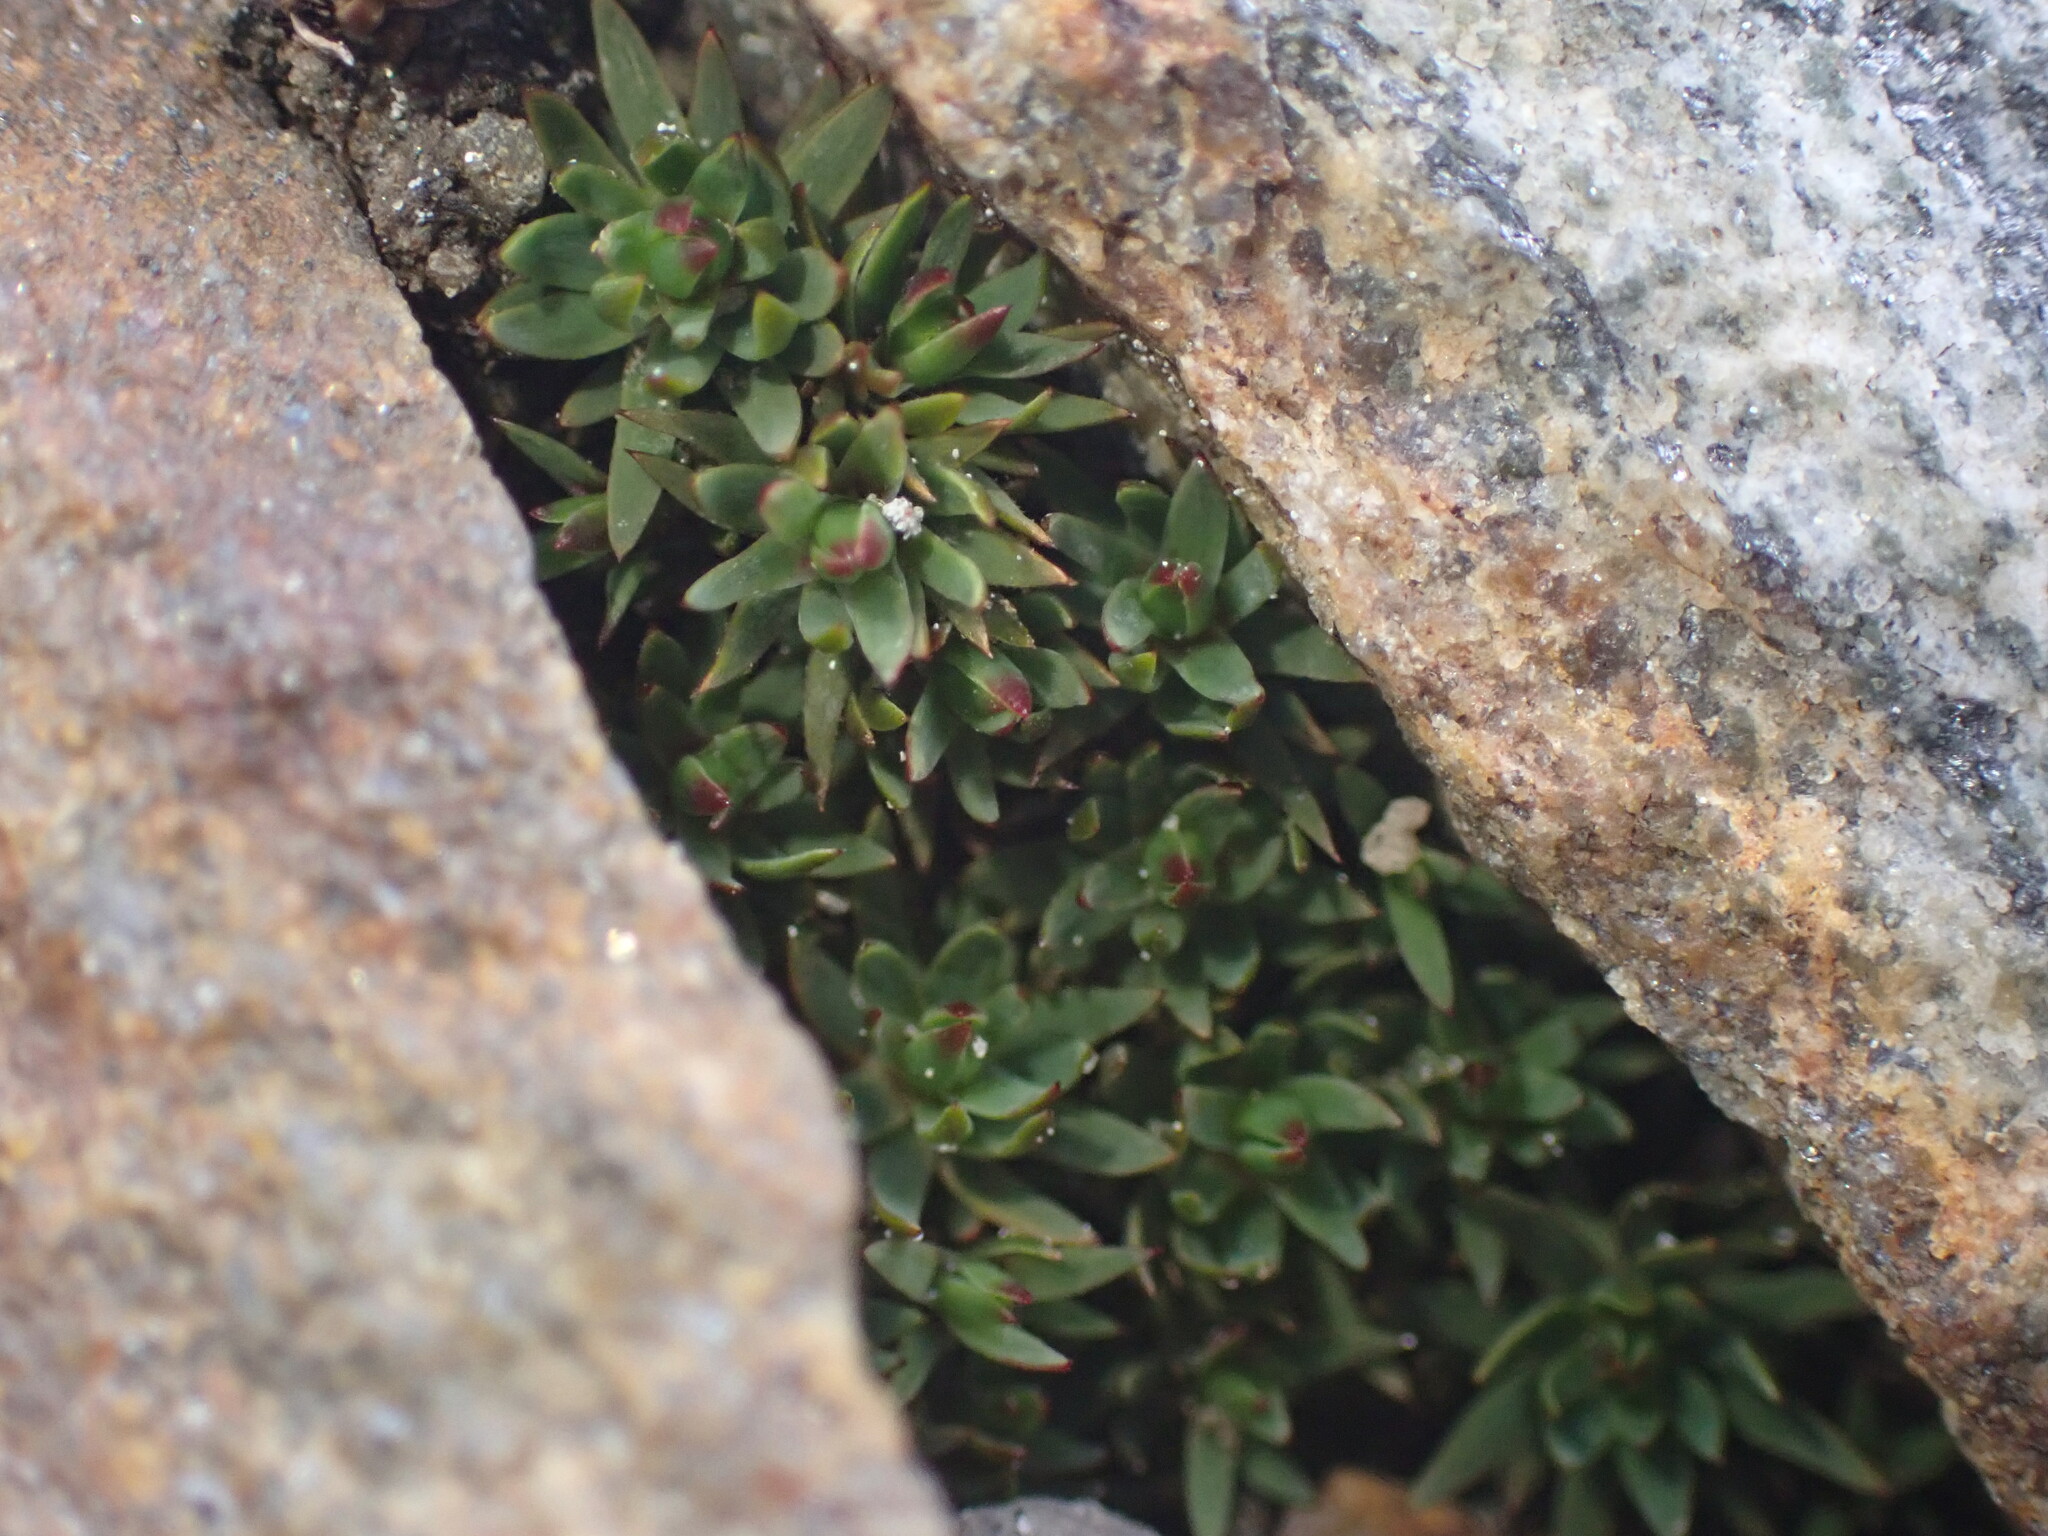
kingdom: Plantae
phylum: Bryophyta
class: Polytrichopsida
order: Polytrichales
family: Polytrichaceae
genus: Pogonatum
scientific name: Pogonatum urnigerum
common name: Urn hair moss
